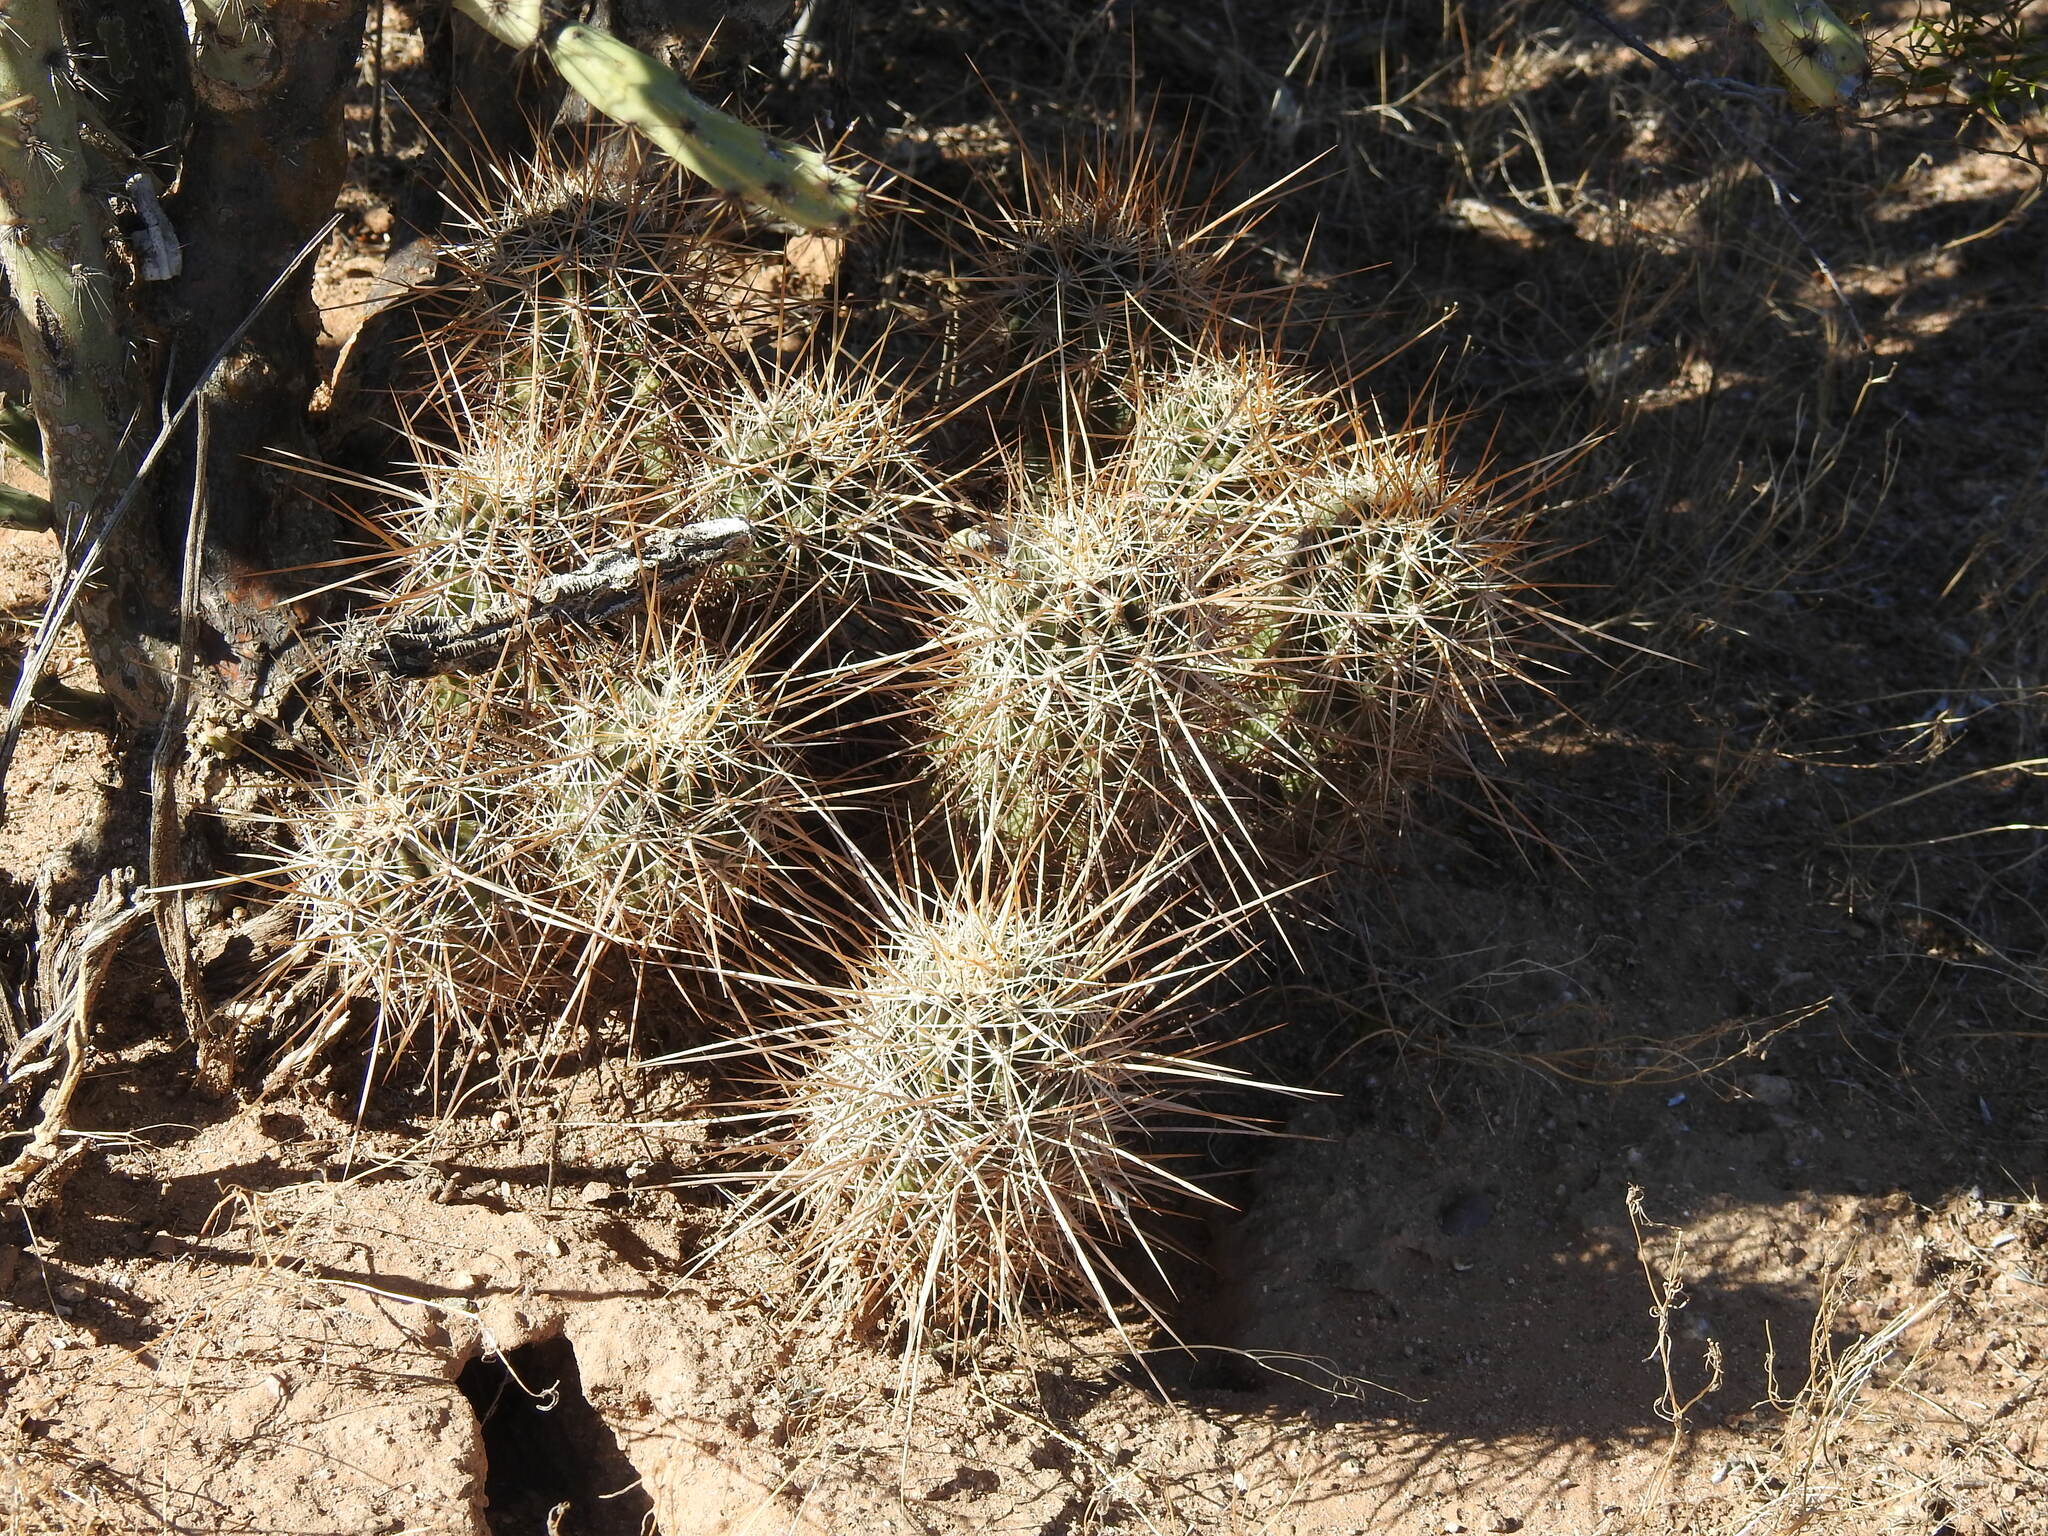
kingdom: Plantae
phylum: Tracheophyta
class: Magnoliopsida
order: Caryophyllales
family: Cactaceae
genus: Echinocereus
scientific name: Echinocereus engelmannii
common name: Engelmann's hedgehog cactus
